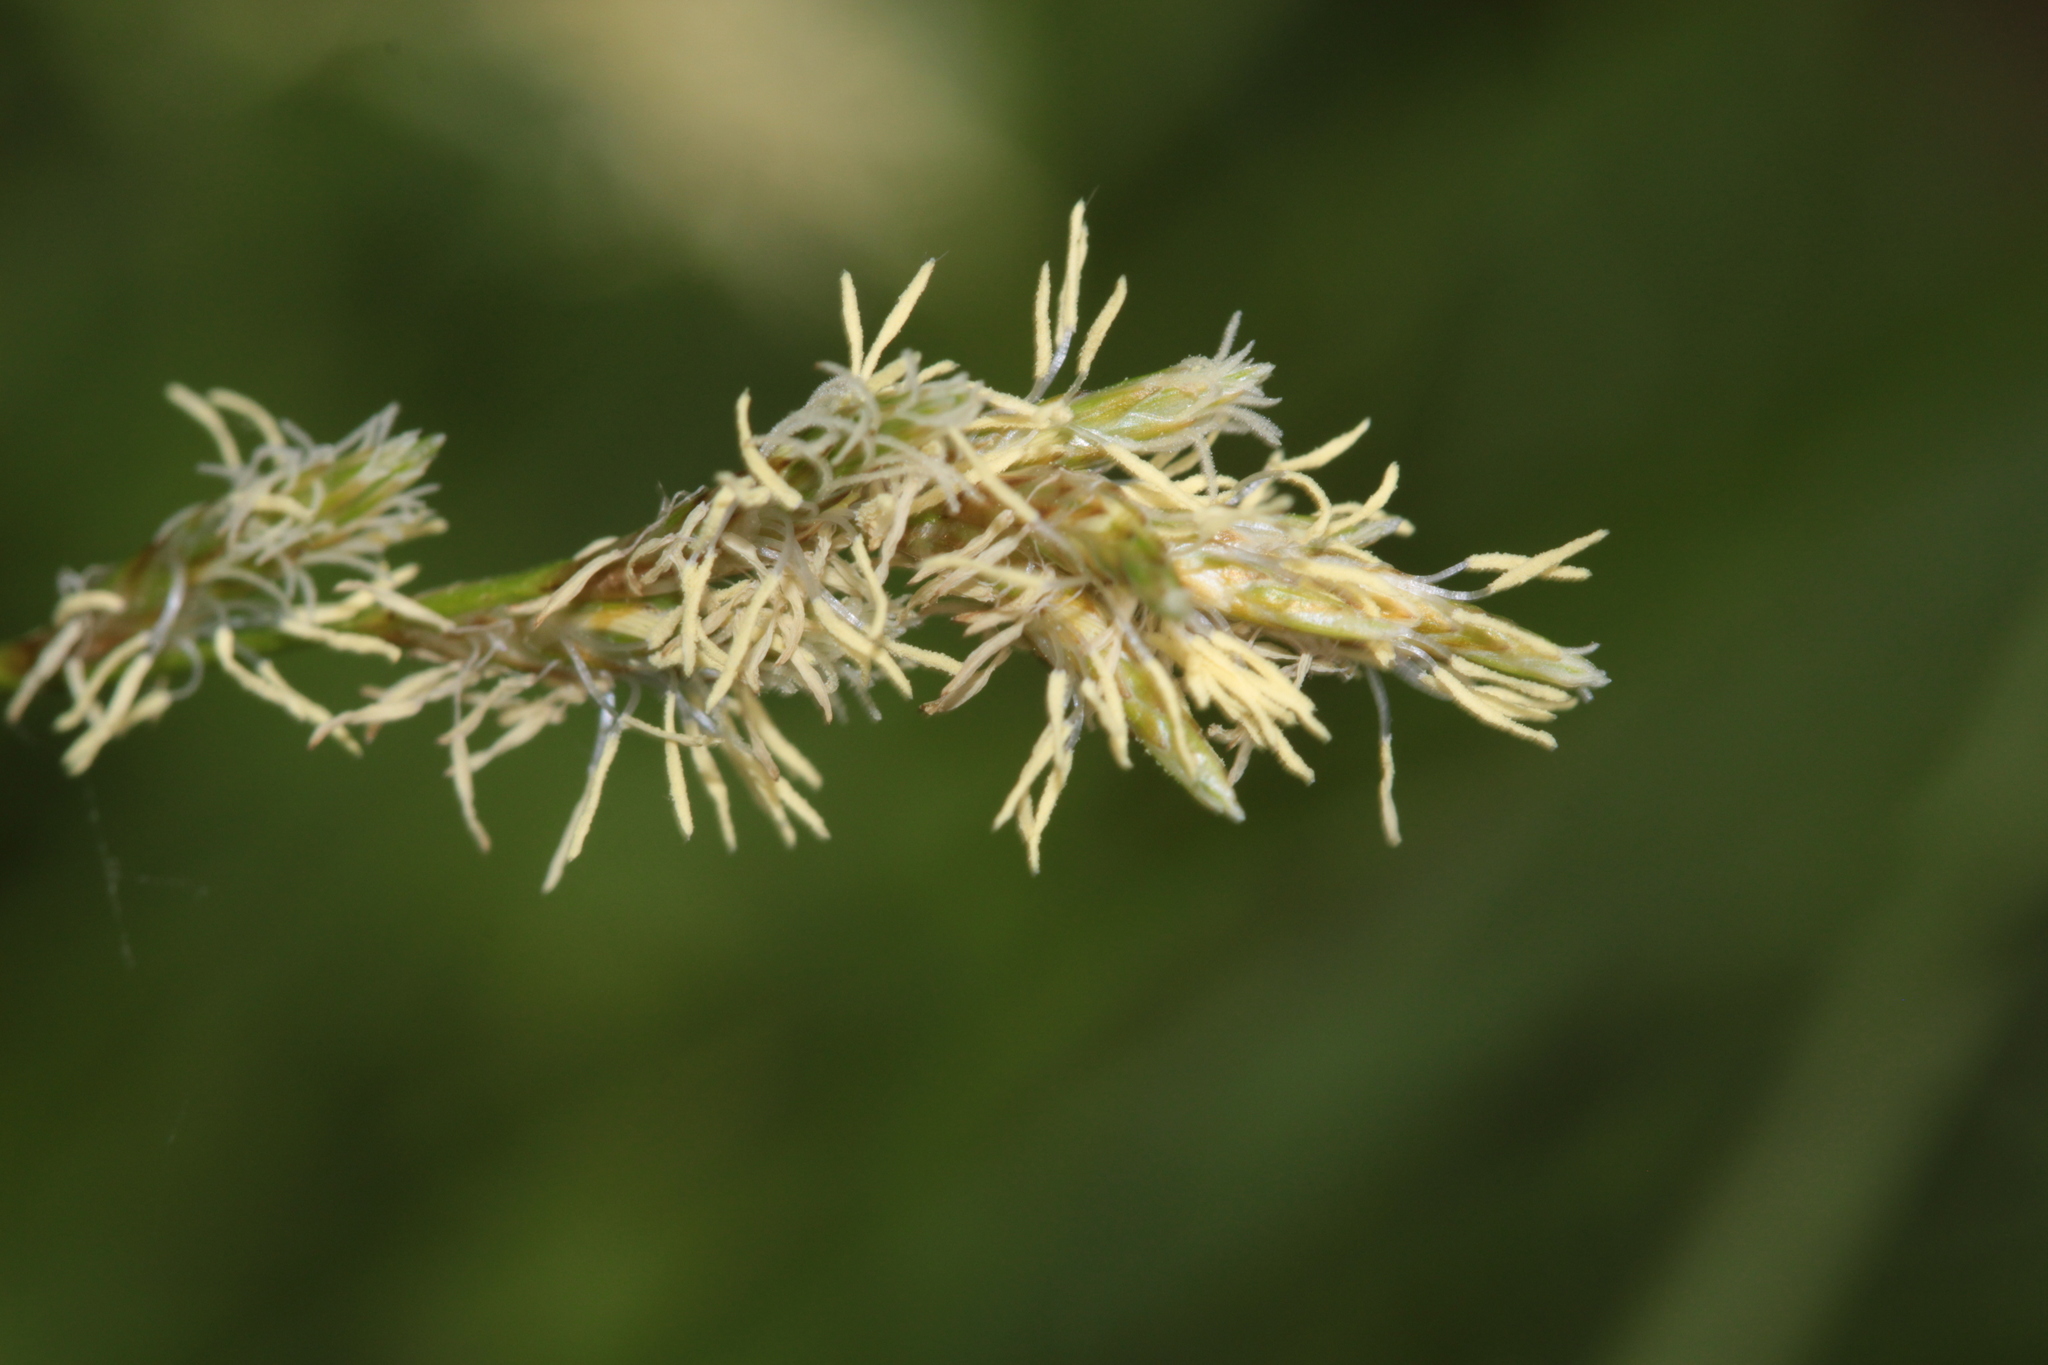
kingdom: Plantae
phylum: Tracheophyta
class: Liliopsida
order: Poales
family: Cyperaceae
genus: Carex
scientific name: Carex brizoides
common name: Quaking-grass sedge
